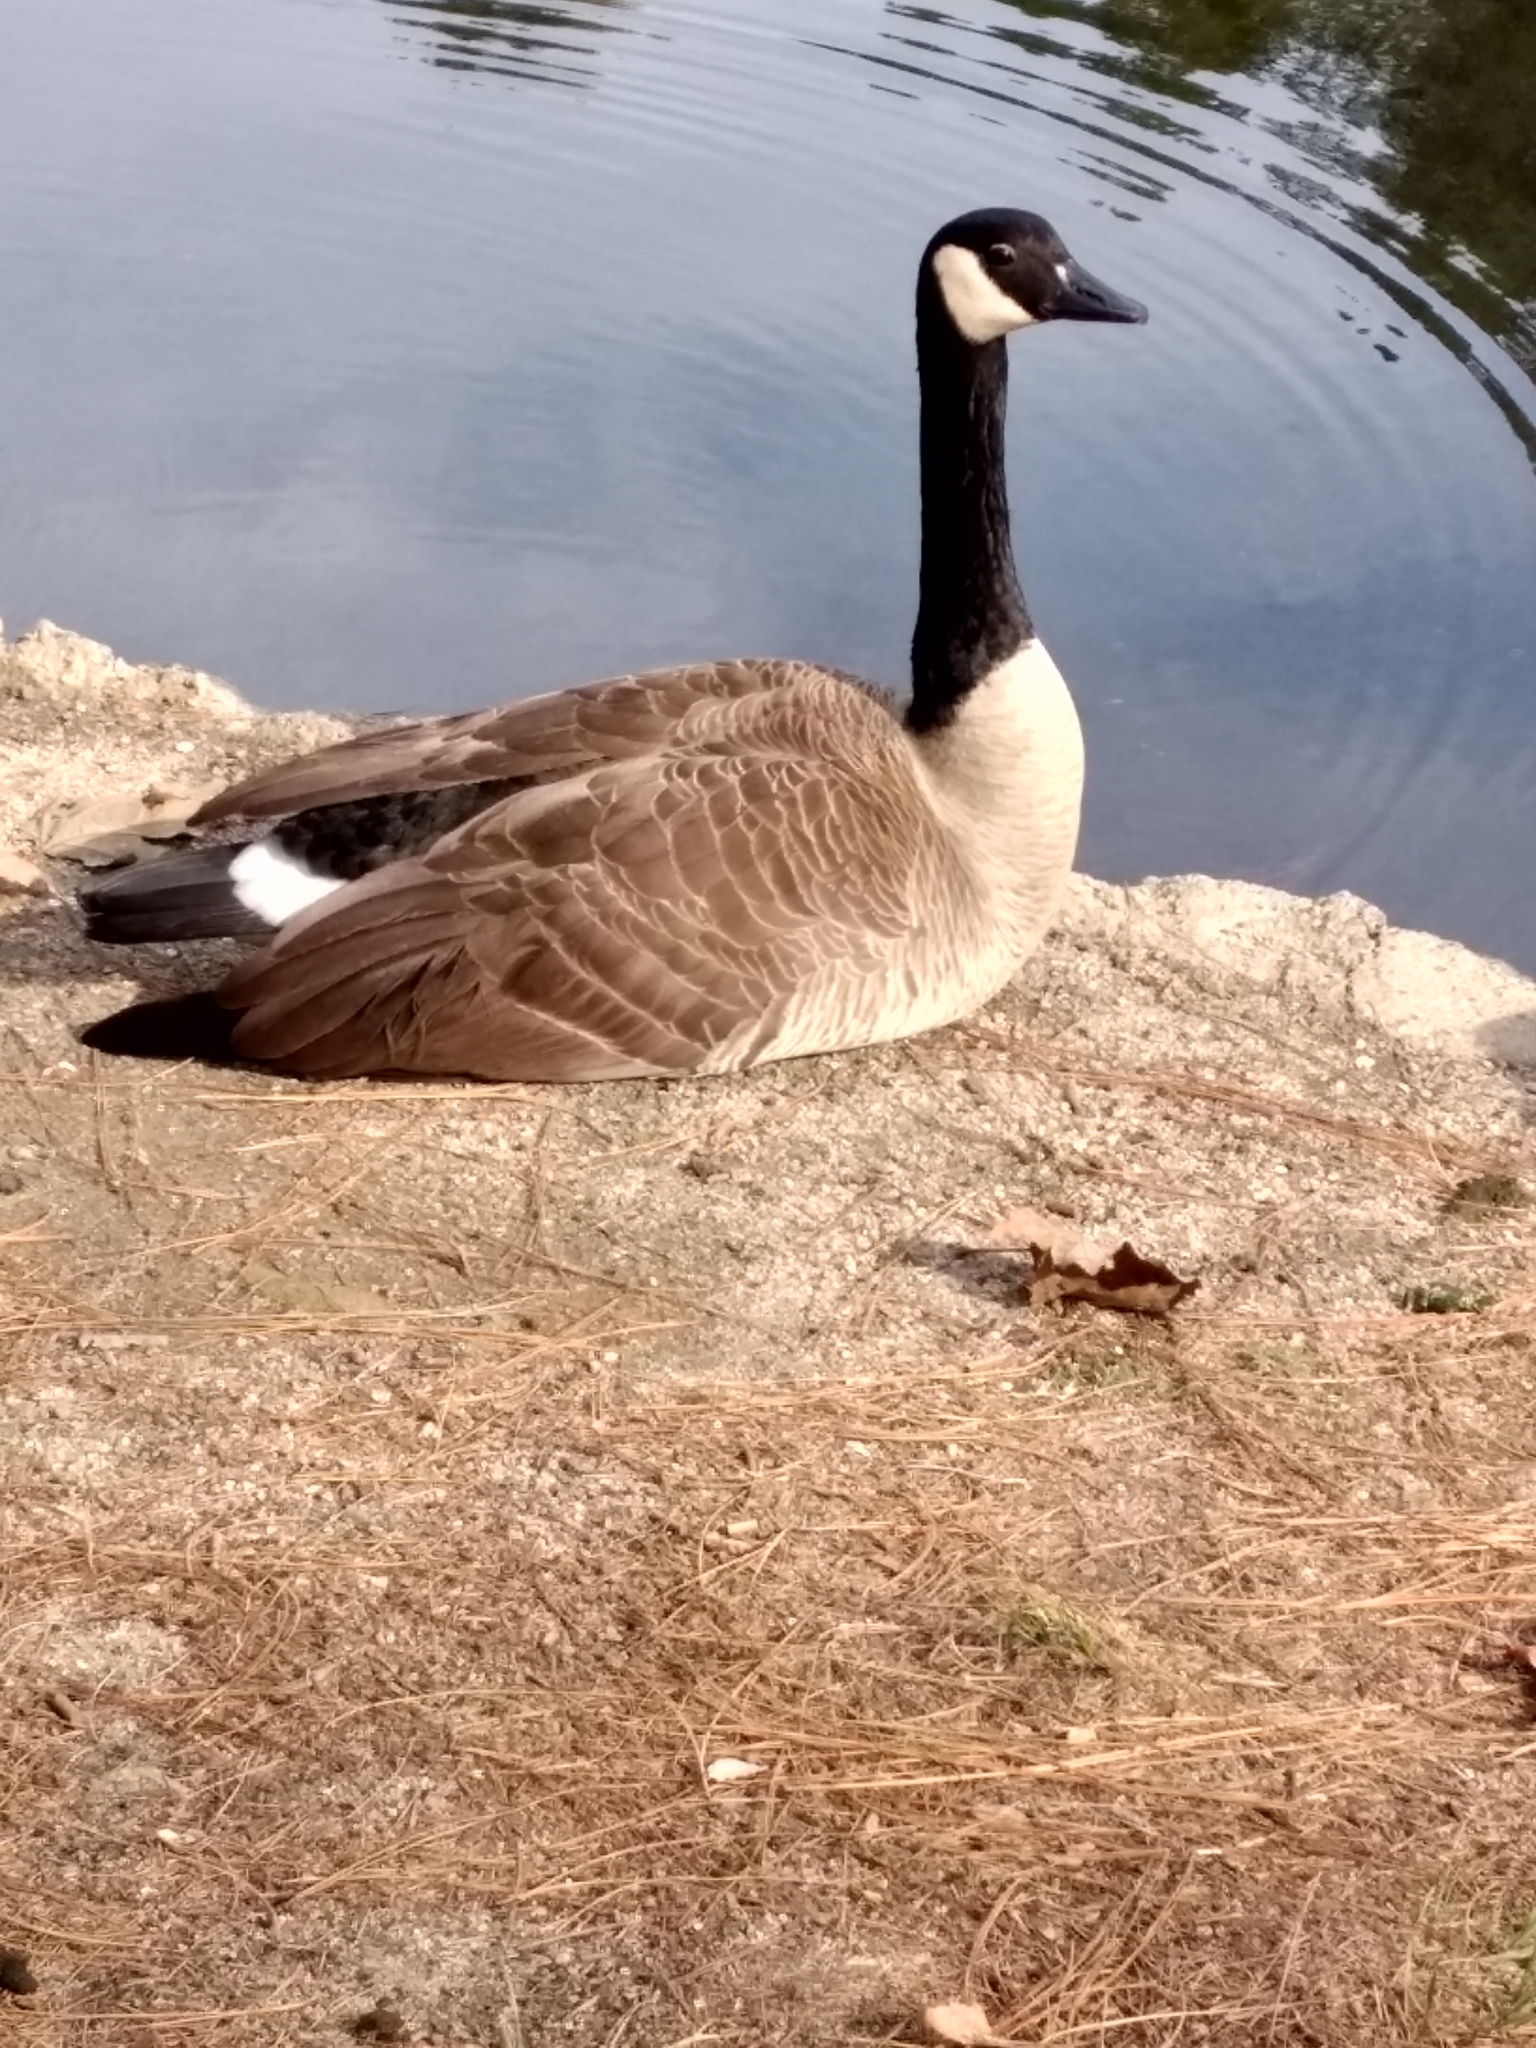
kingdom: Animalia
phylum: Chordata
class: Aves
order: Anseriformes
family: Anatidae
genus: Branta
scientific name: Branta canadensis
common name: Canada goose
